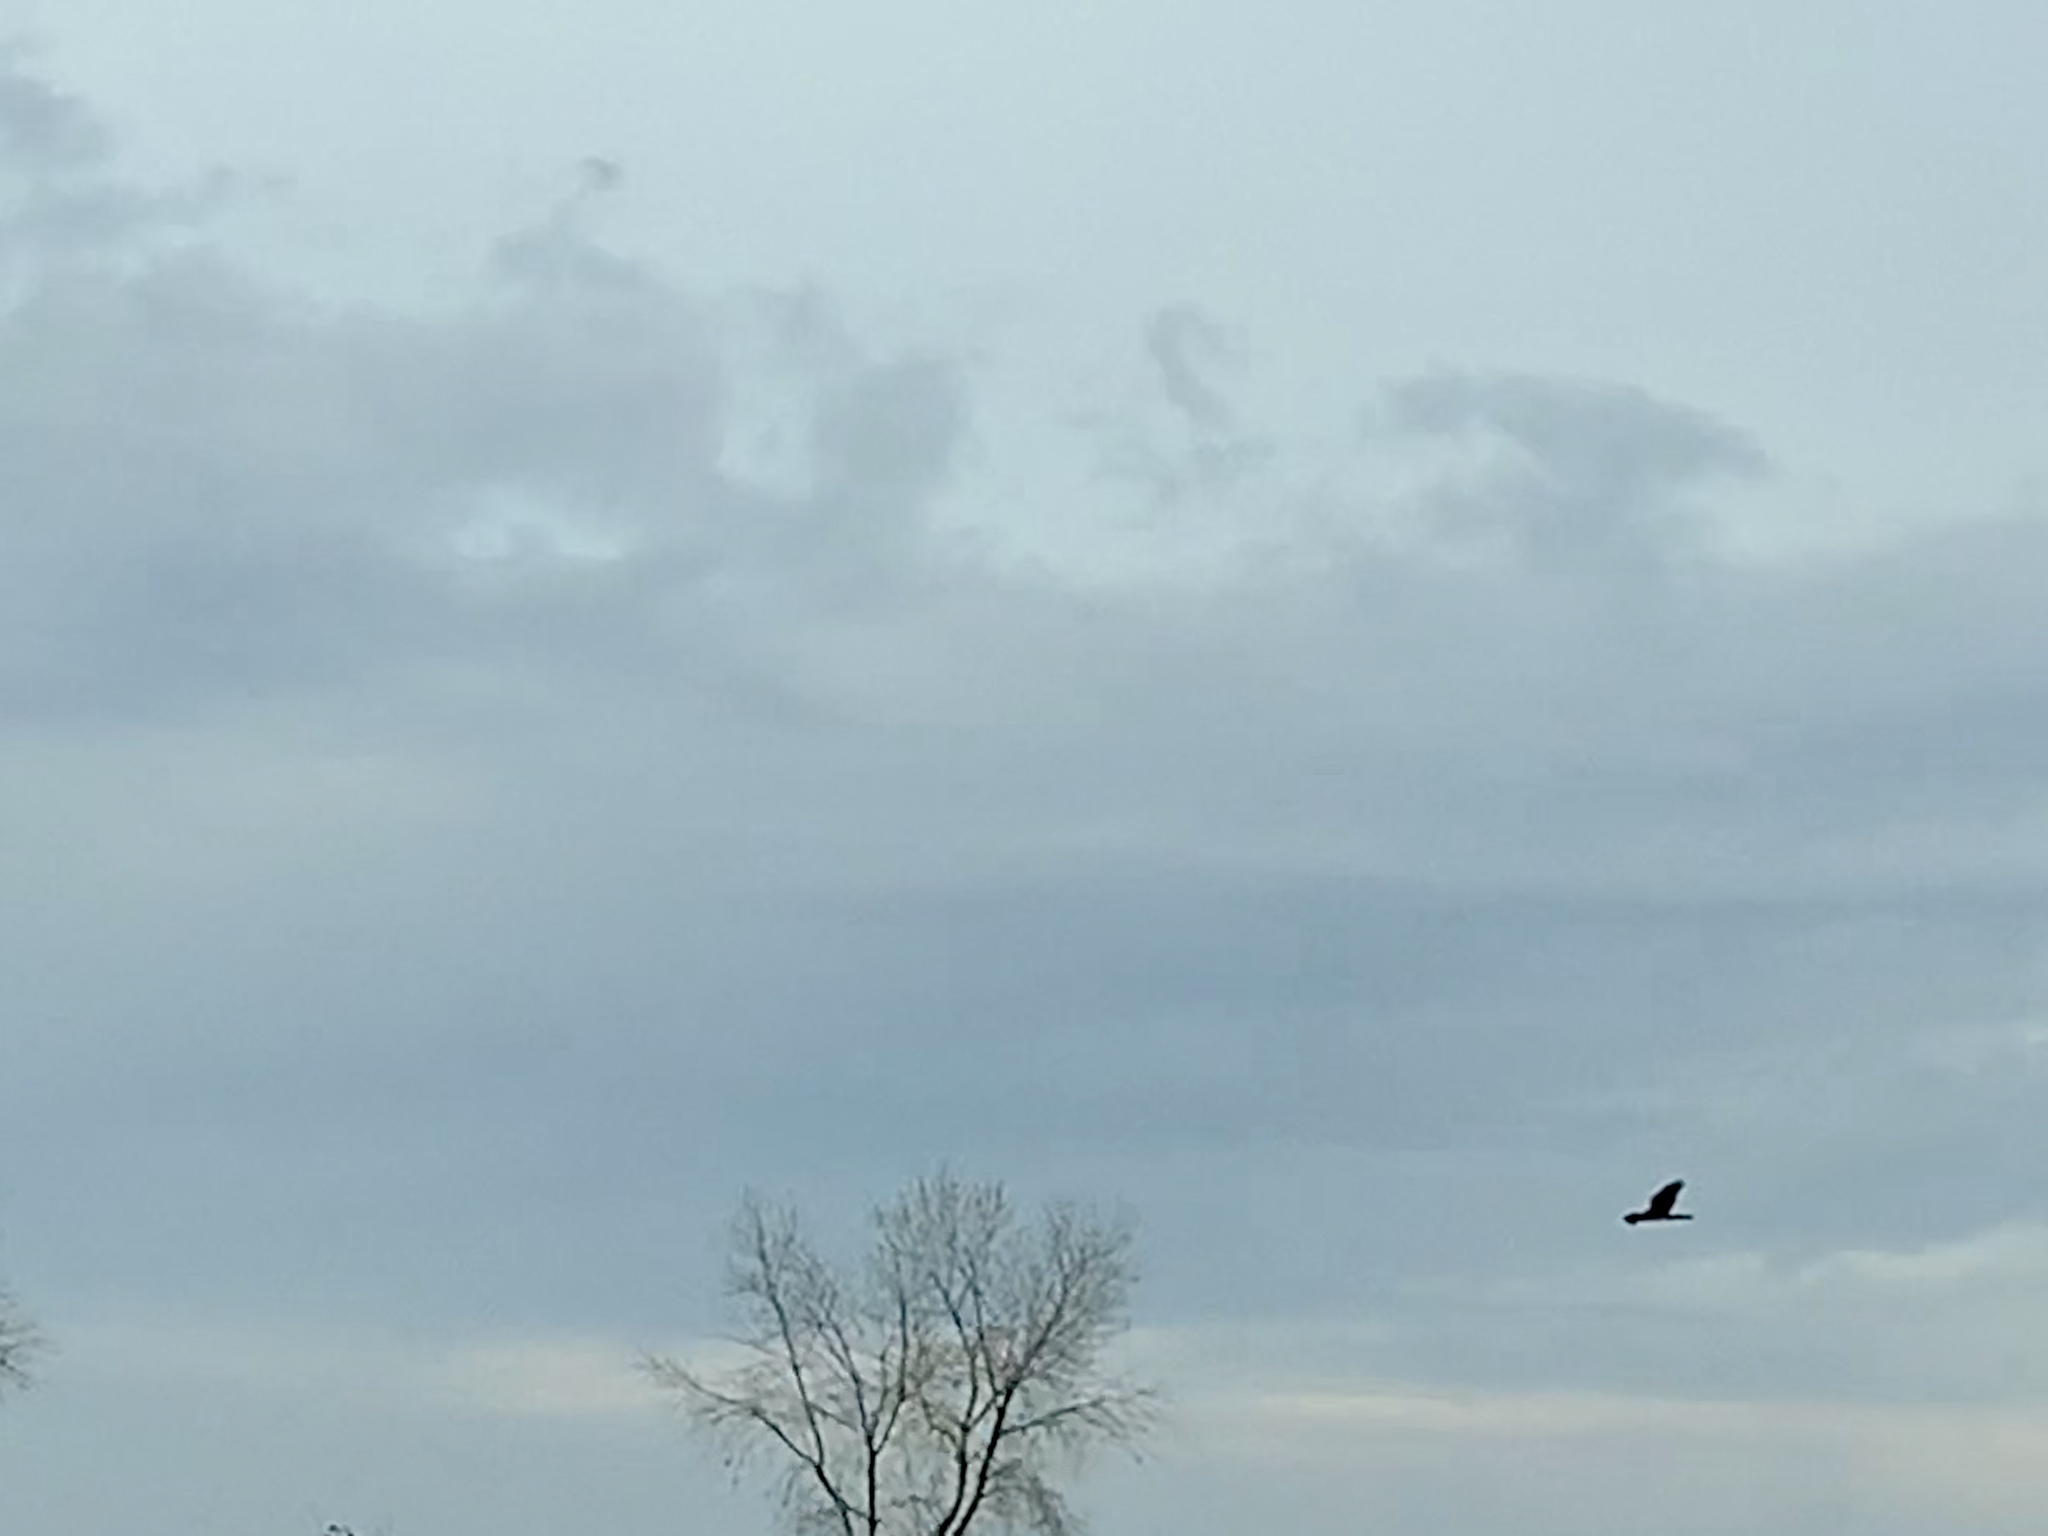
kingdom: Animalia
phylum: Chordata
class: Aves
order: Accipitriformes
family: Accipitridae
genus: Circus
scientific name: Circus cyaneus
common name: Hen harrier
